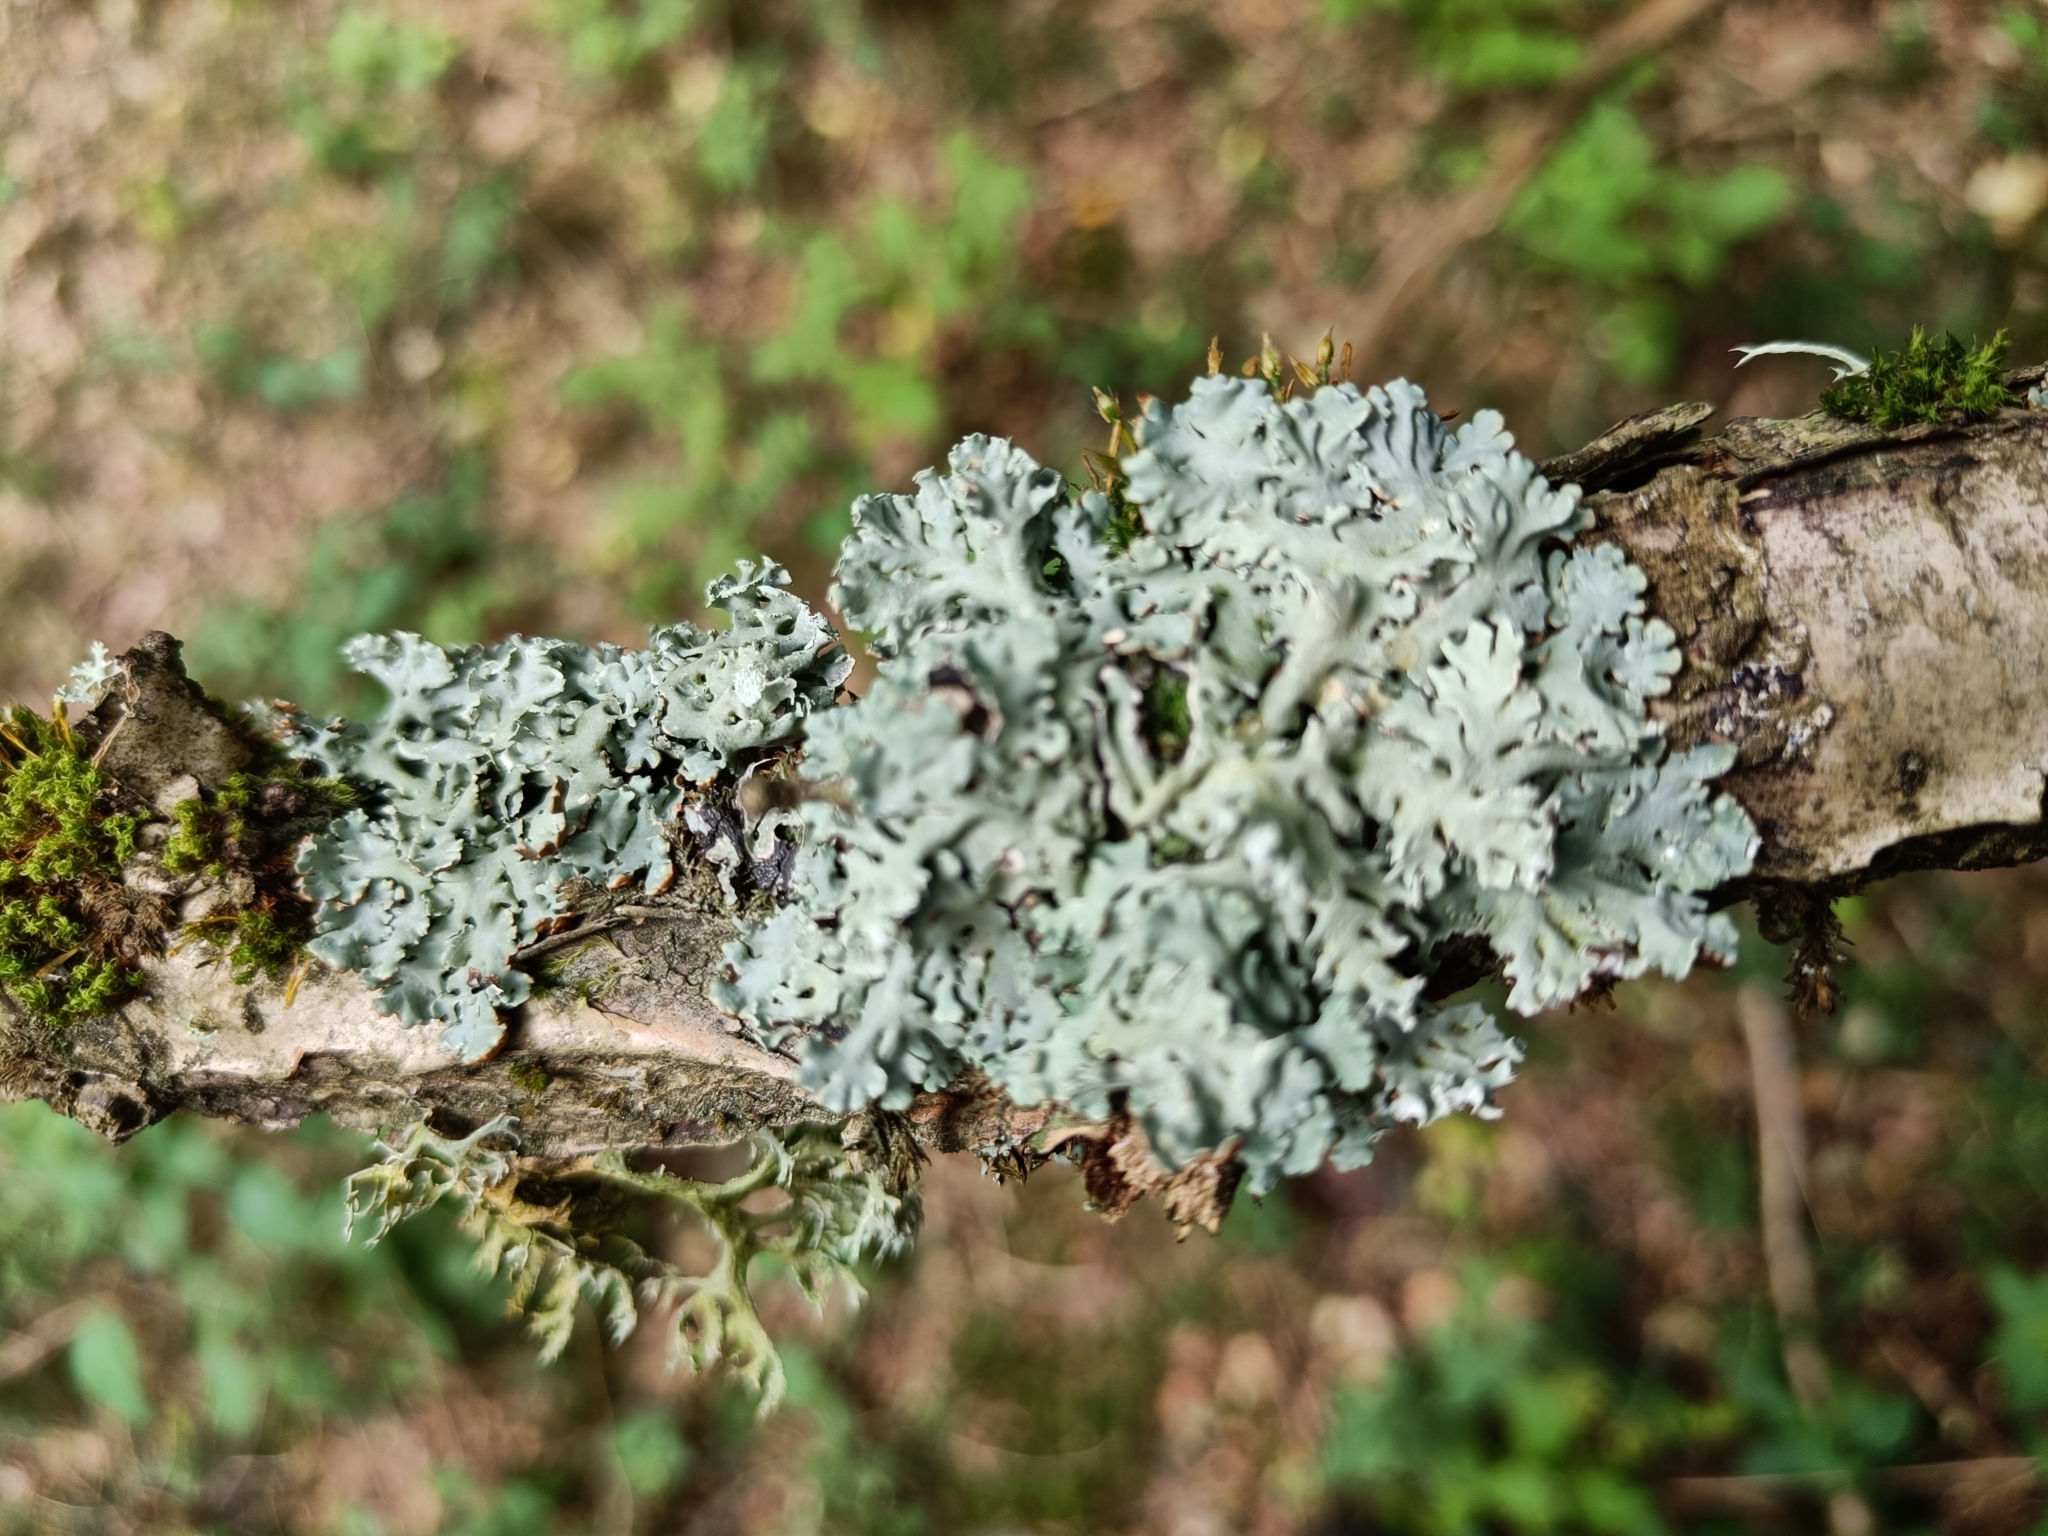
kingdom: Fungi
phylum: Ascomycota
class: Lecanoromycetes
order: Lecanorales
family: Parmeliaceae
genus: Hypogymnia
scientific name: Hypogymnia physodes
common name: Dark crottle
